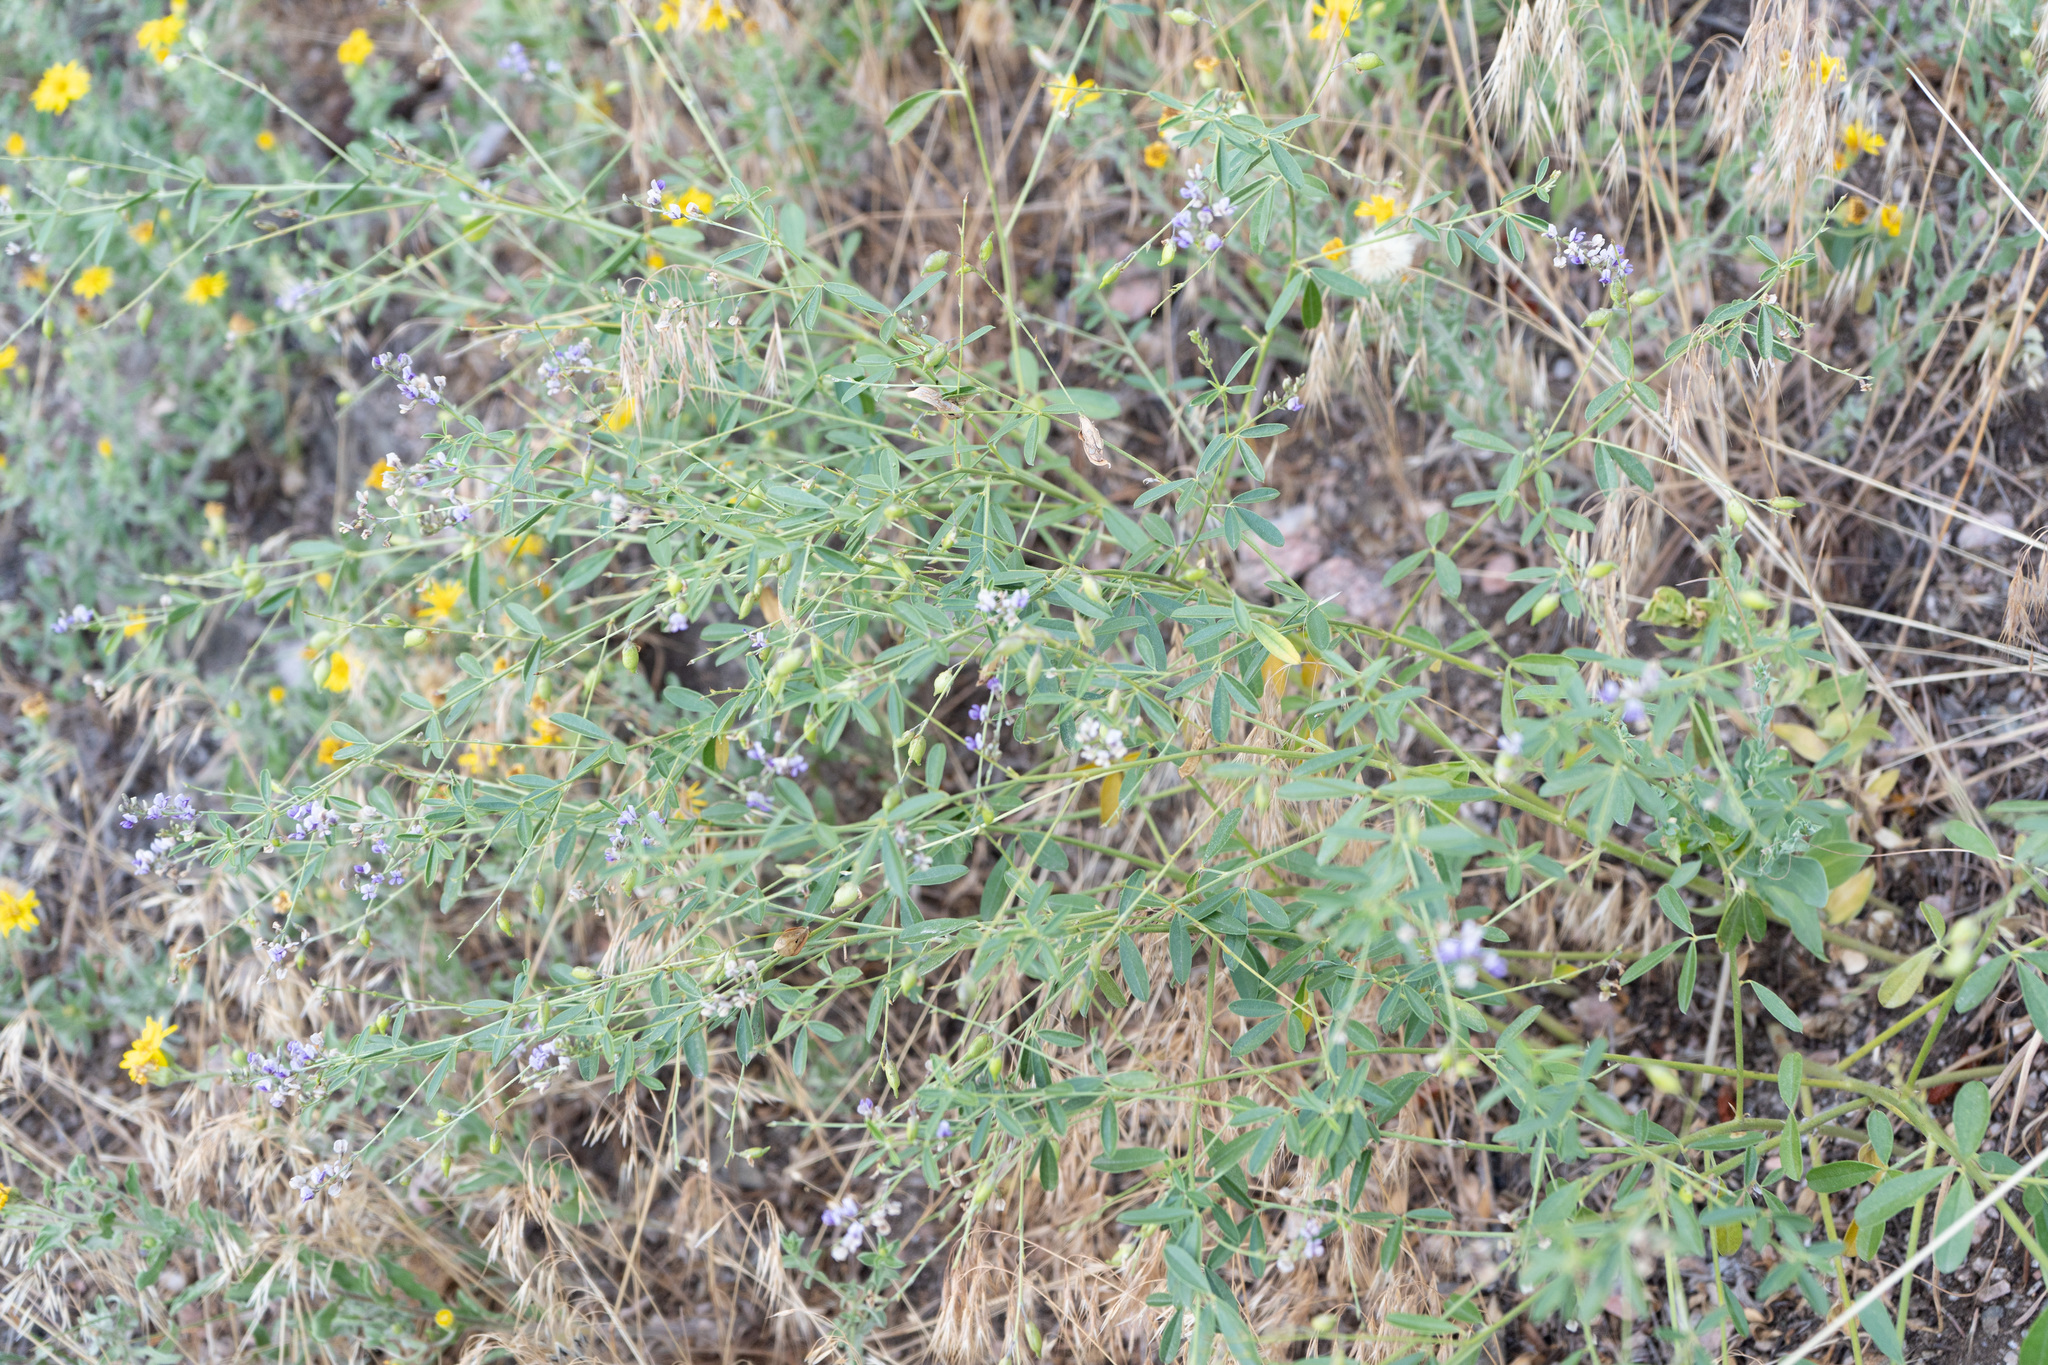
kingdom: Plantae
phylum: Tracheophyta
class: Magnoliopsida
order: Fabales
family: Fabaceae
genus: Pediomelum
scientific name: Pediomelum tenuiflorum
